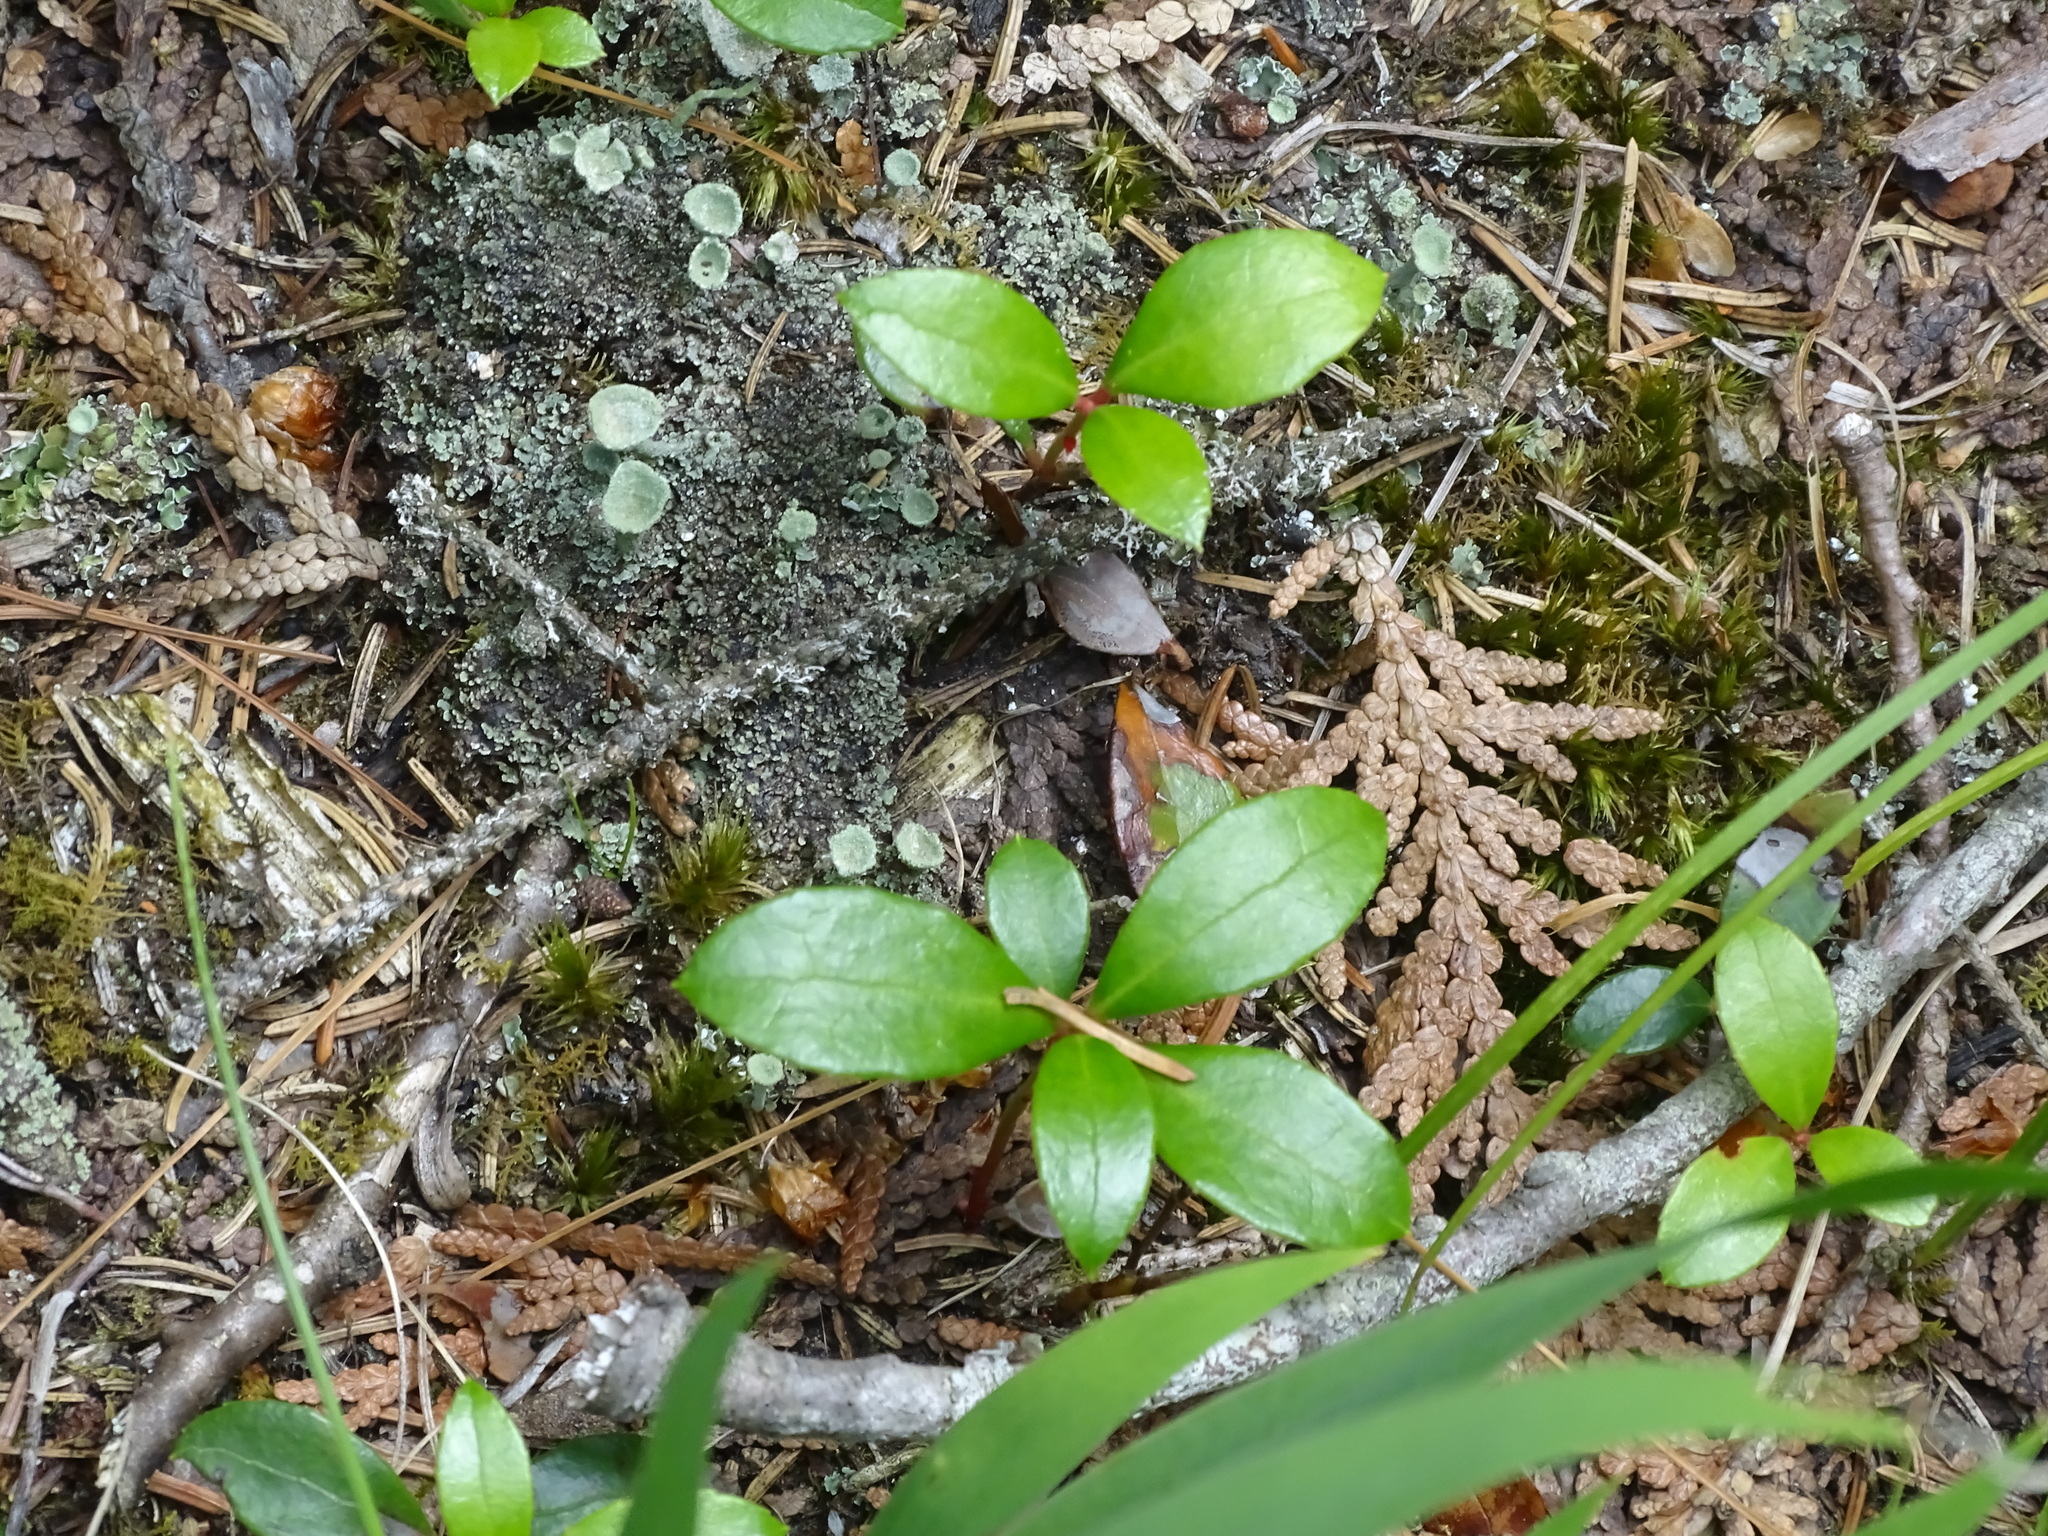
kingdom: Plantae
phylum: Tracheophyta
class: Magnoliopsida
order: Ericales
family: Ericaceae
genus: Gaultheria
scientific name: Gaultheria procumbens
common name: Checkerberry
